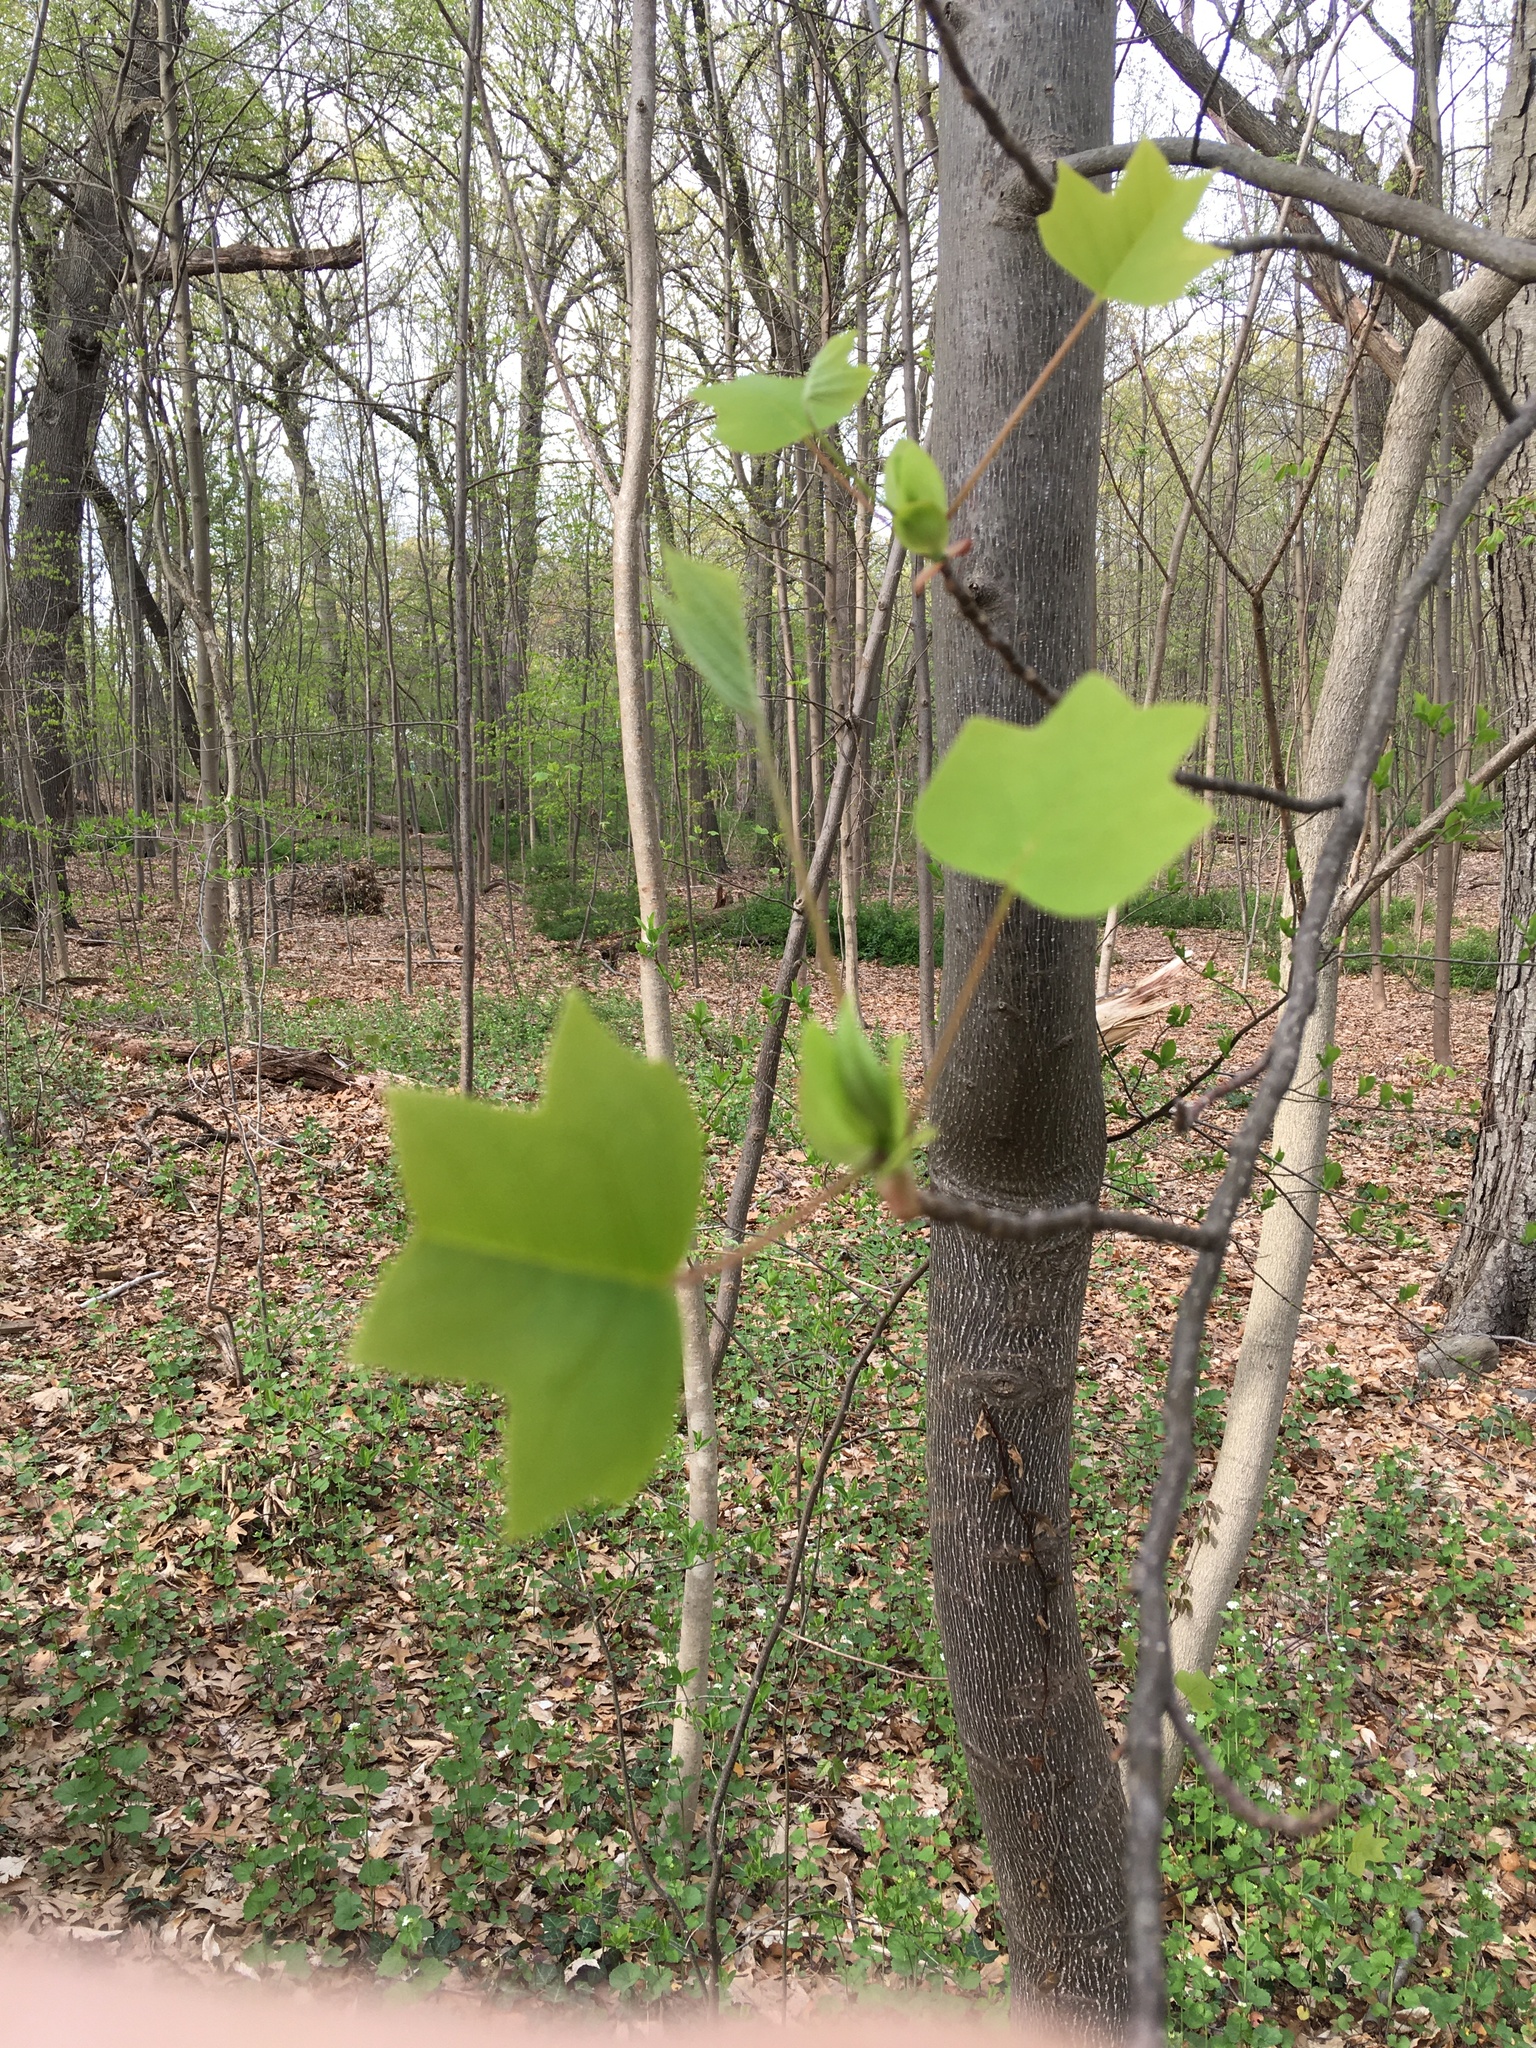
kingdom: Plantae
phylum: Tracheophyta
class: Magnoliopsida
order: Magnoliales
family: Magnoliaceae
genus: Liriodendron
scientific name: Liriodendron tulipifera
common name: Tulip tree
